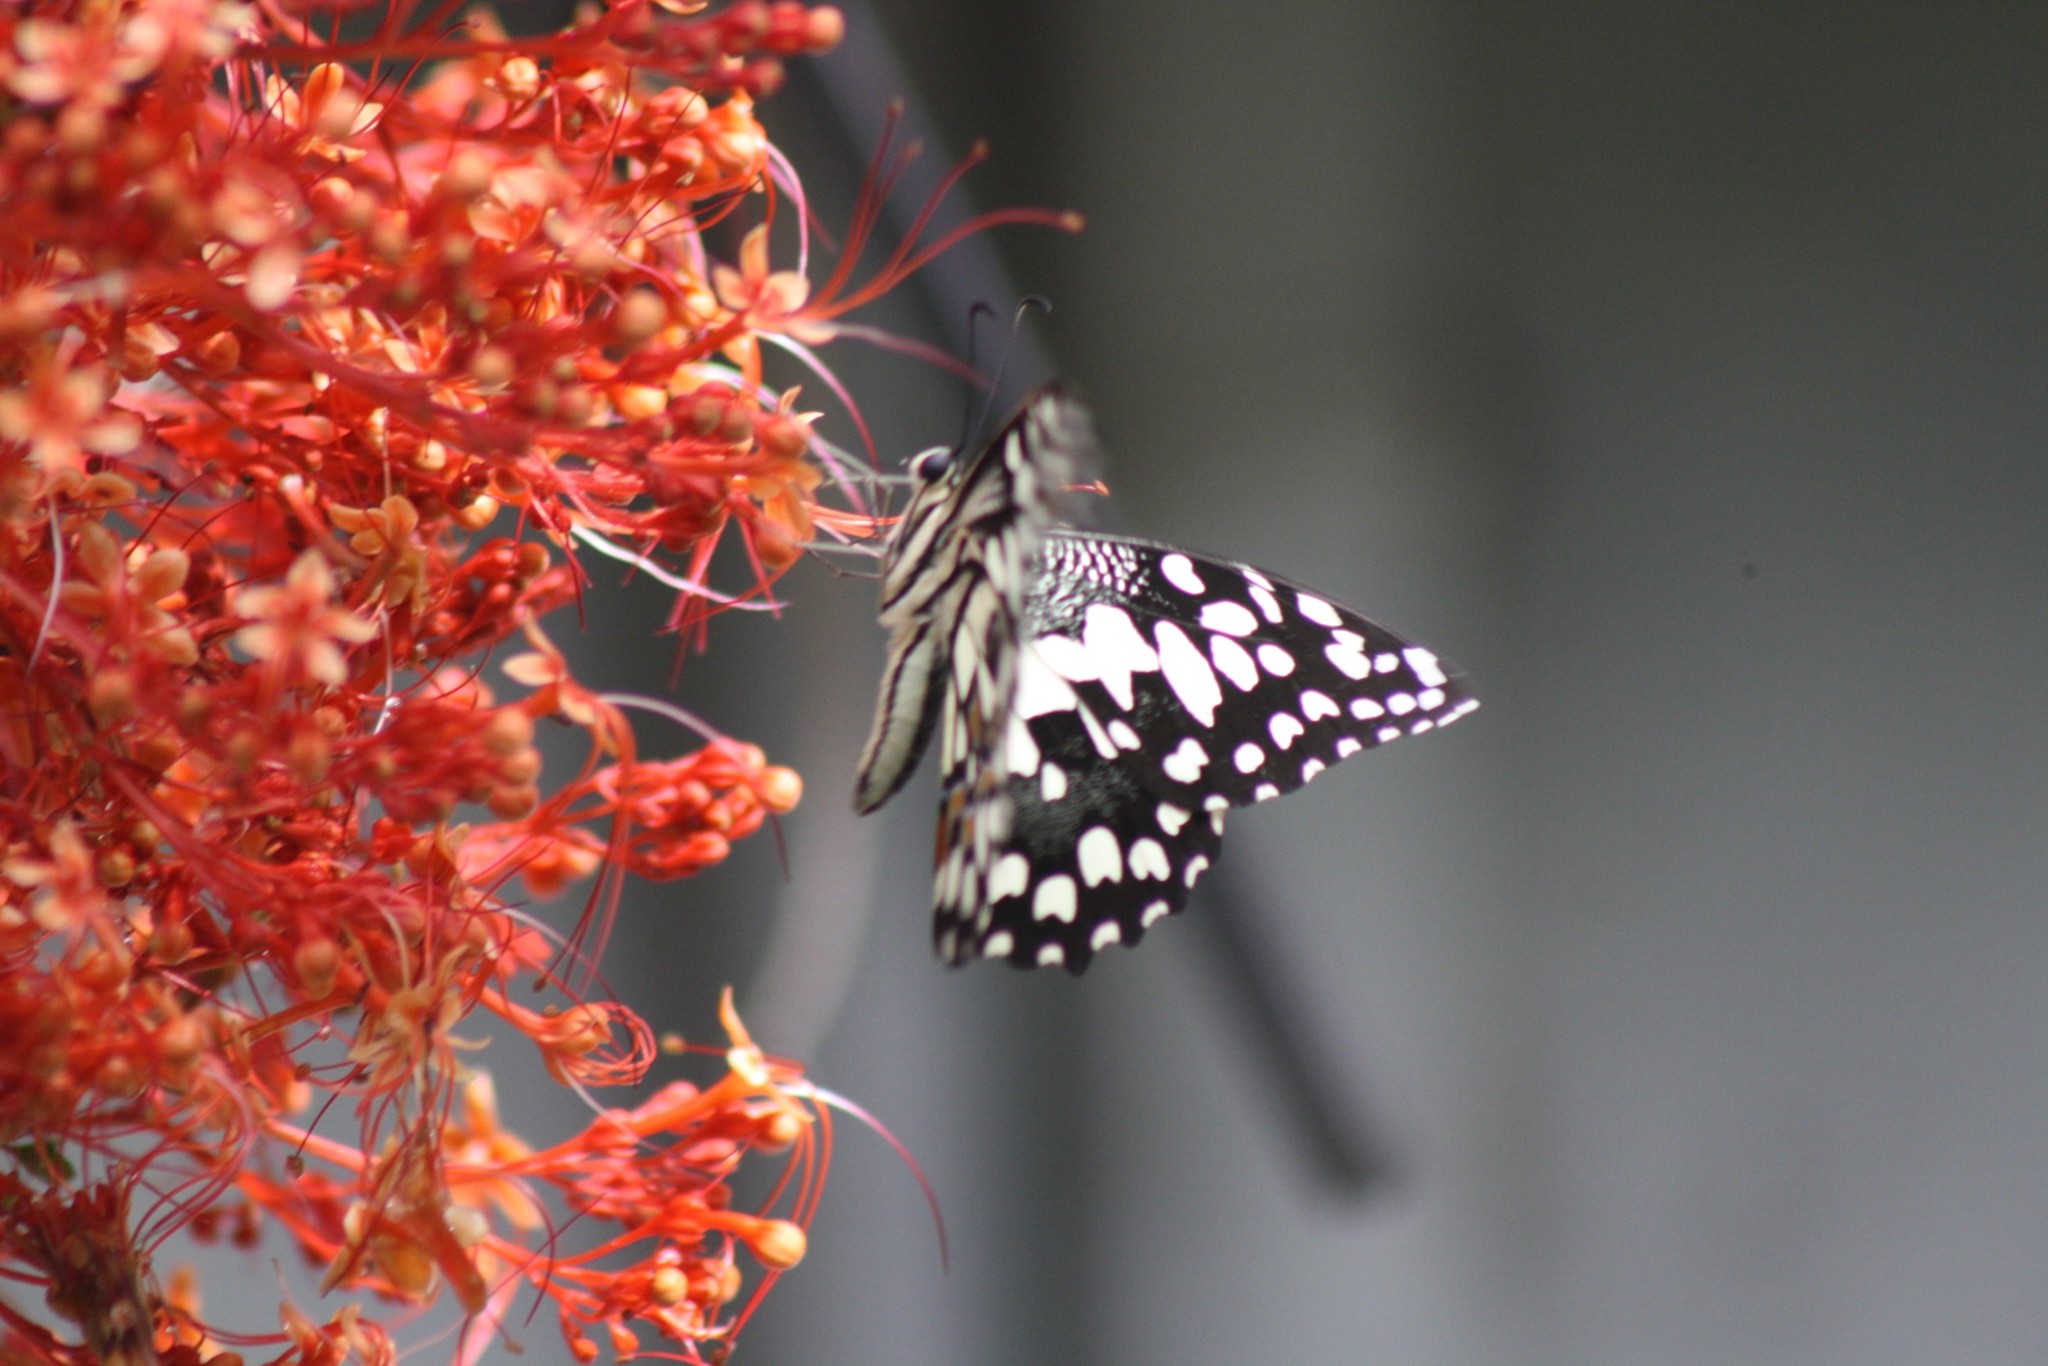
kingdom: Animalia
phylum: Arthropoda
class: Insecta
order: Lepidoptera
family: Papilionidae
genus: Papilio
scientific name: Papilio demoleus
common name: Lime butterfly
